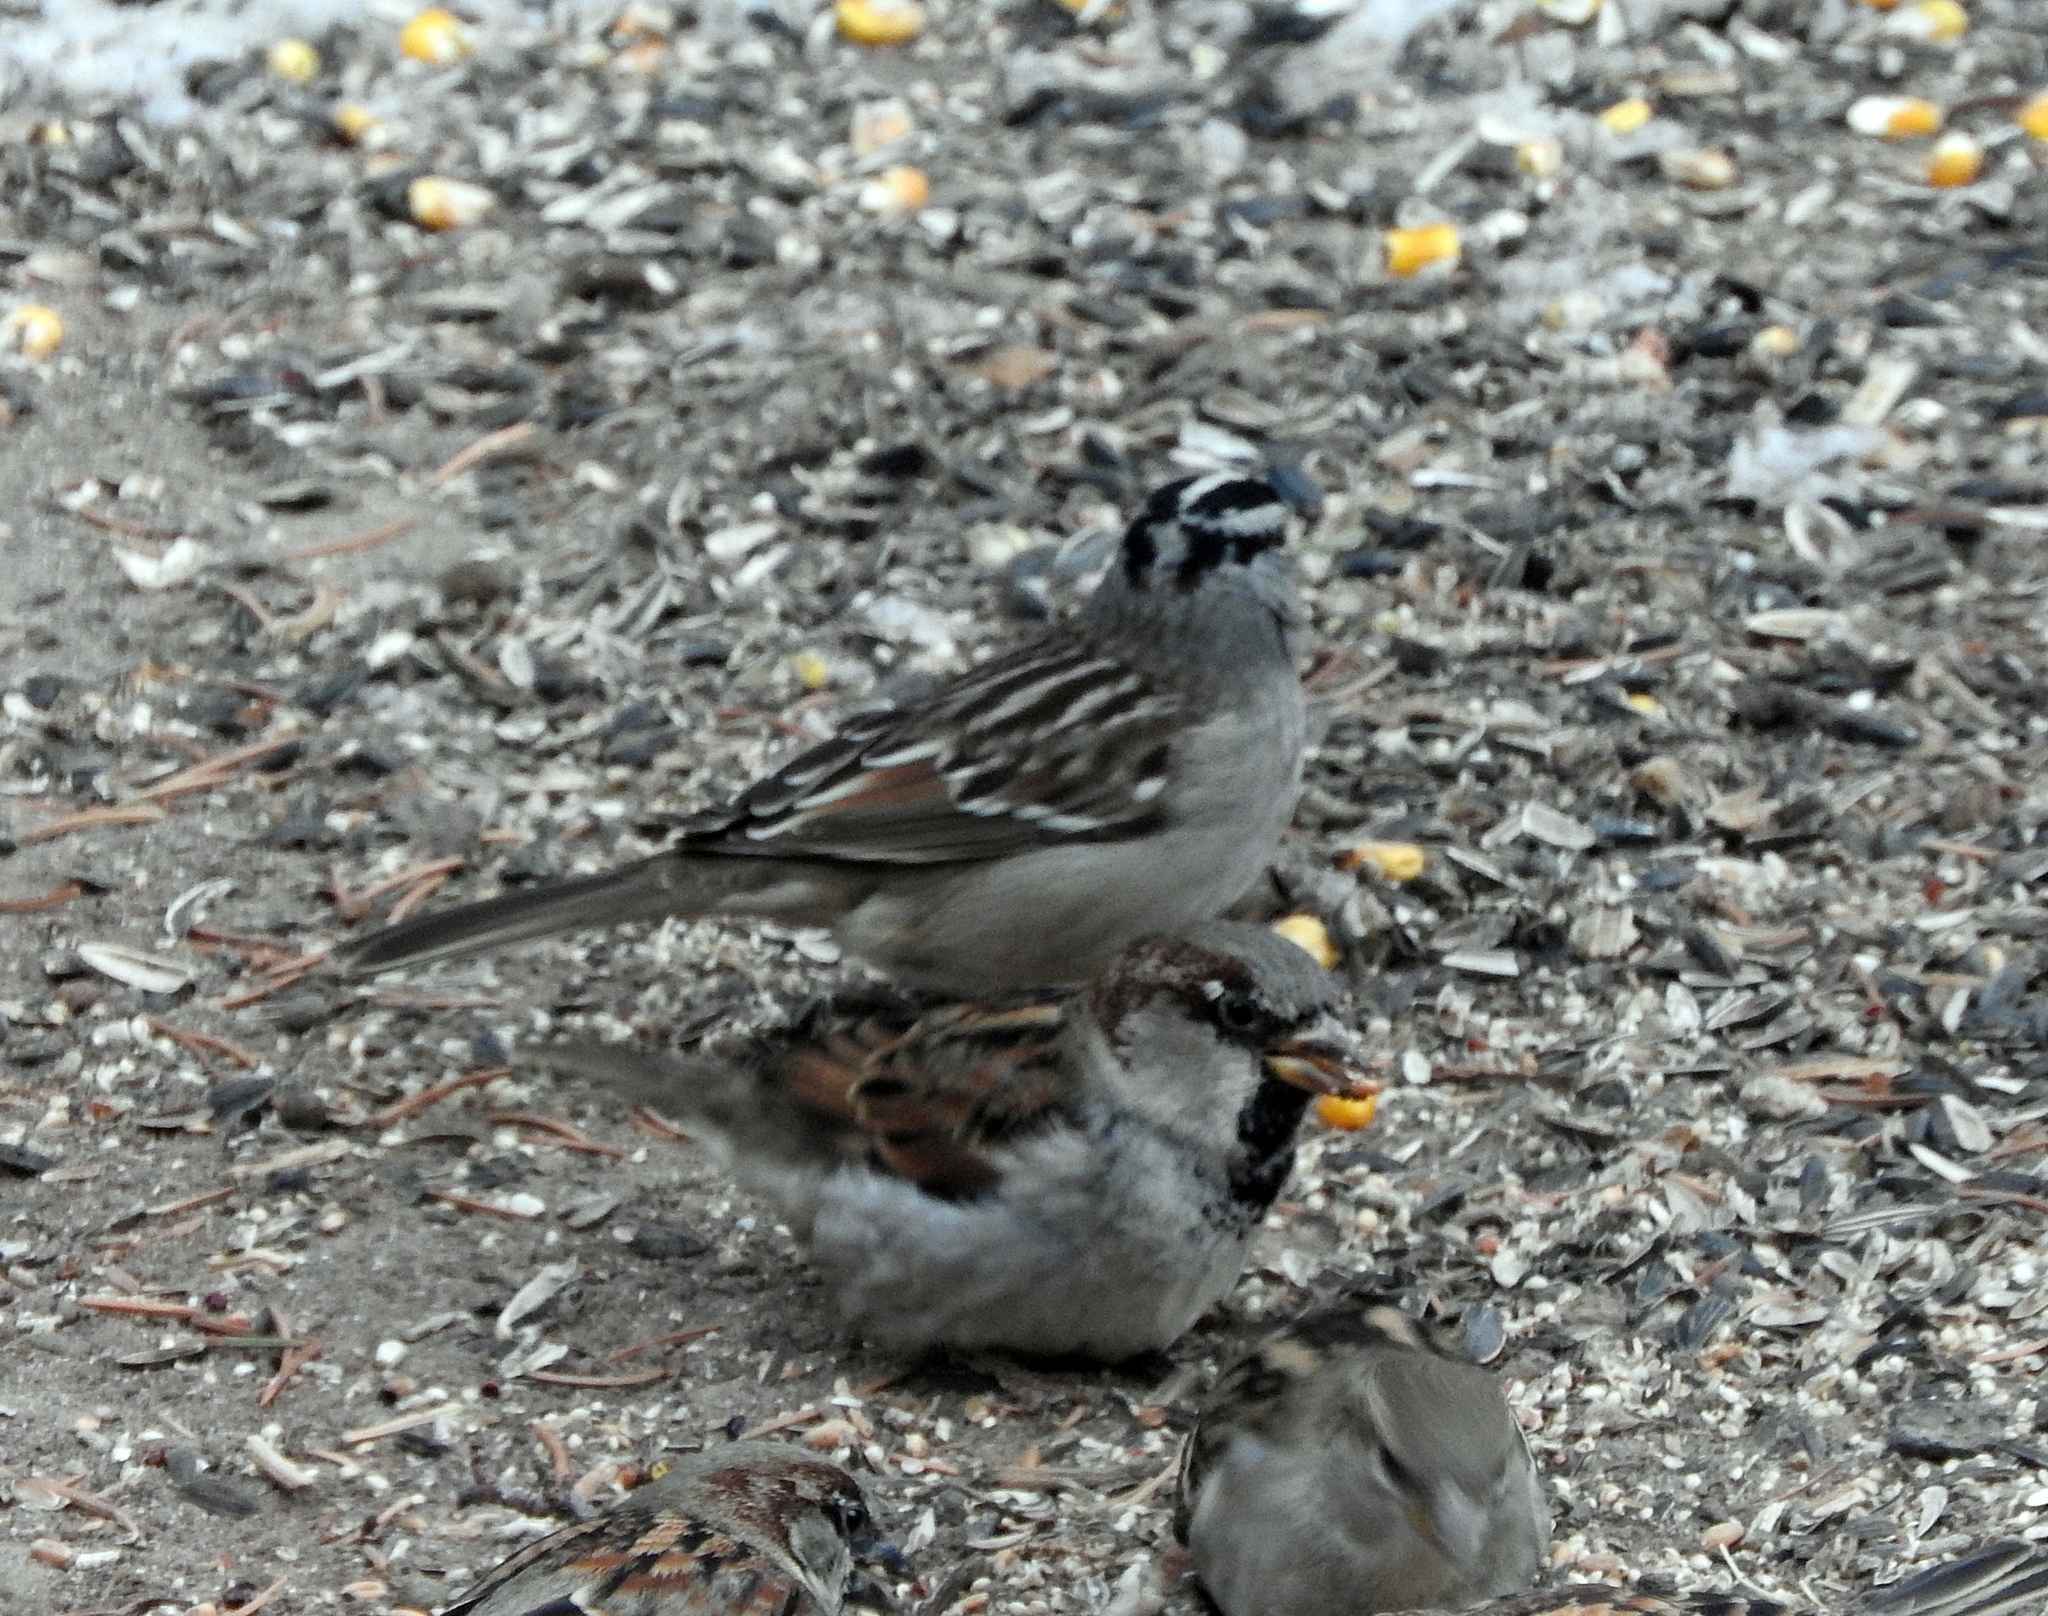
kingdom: Animalia
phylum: Chordata
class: Aves
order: Passeriformes
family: Passerellidae
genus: Zonotrichia
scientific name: Zonotrichia leucophrys
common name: White-crowned sparrow
